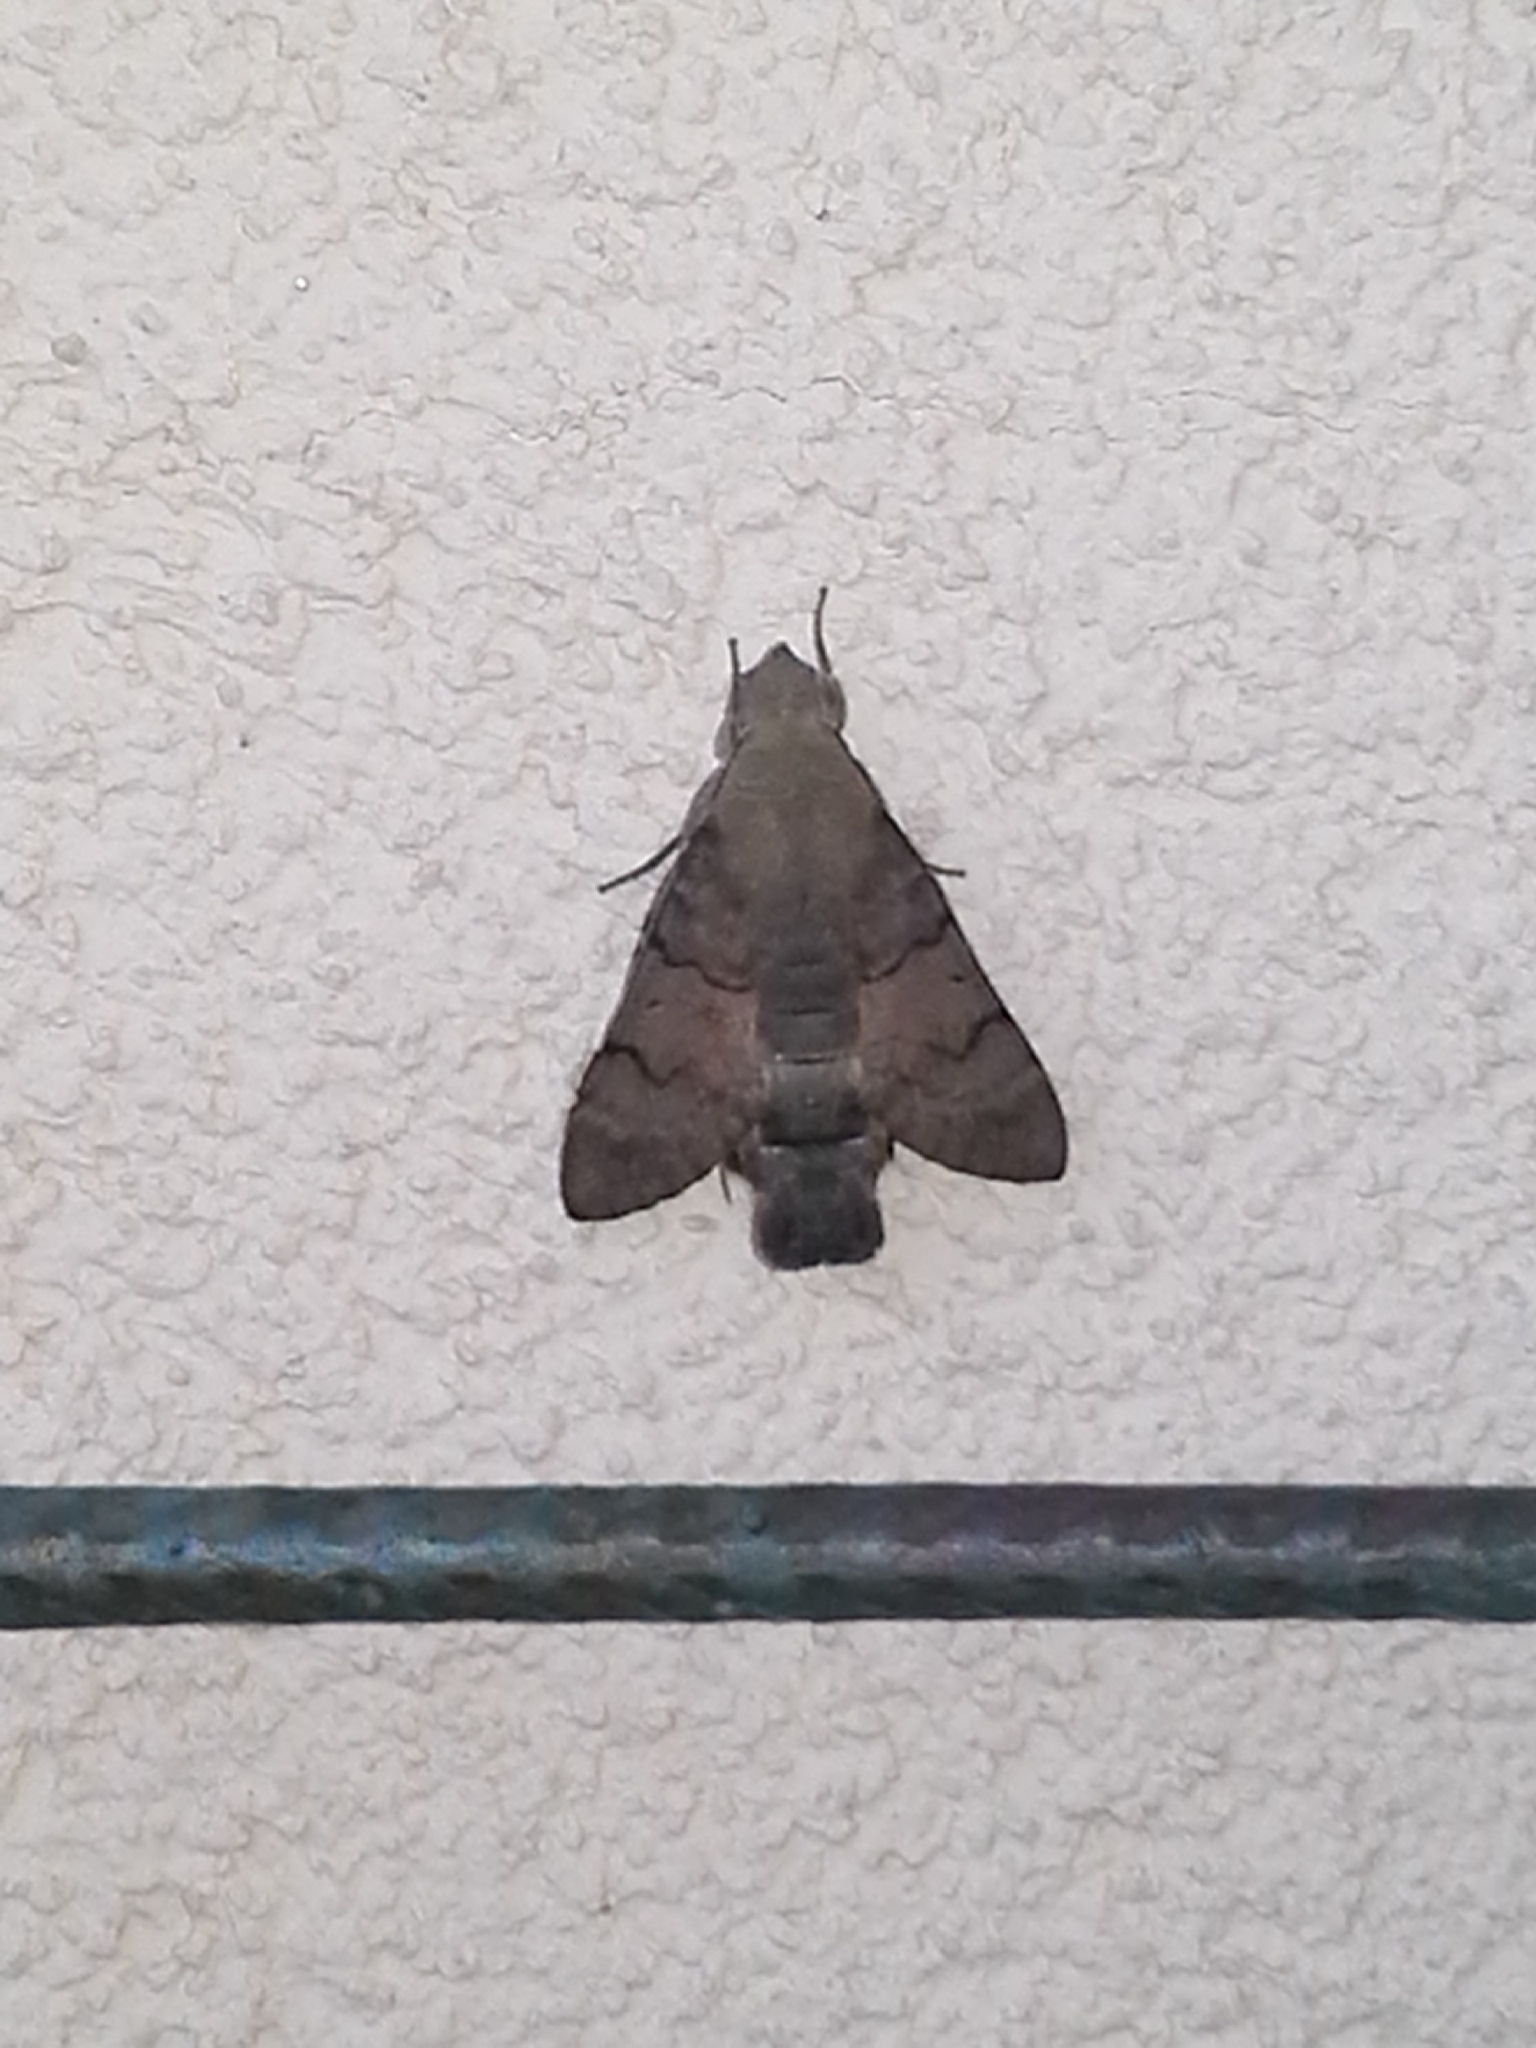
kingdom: Animalia
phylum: Arthropoda
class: Insecta
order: Lepidoptera
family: Sphingidae
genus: Macroglossum
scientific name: Macroglossum stellatarum
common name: Humming-bird hawk-moth
